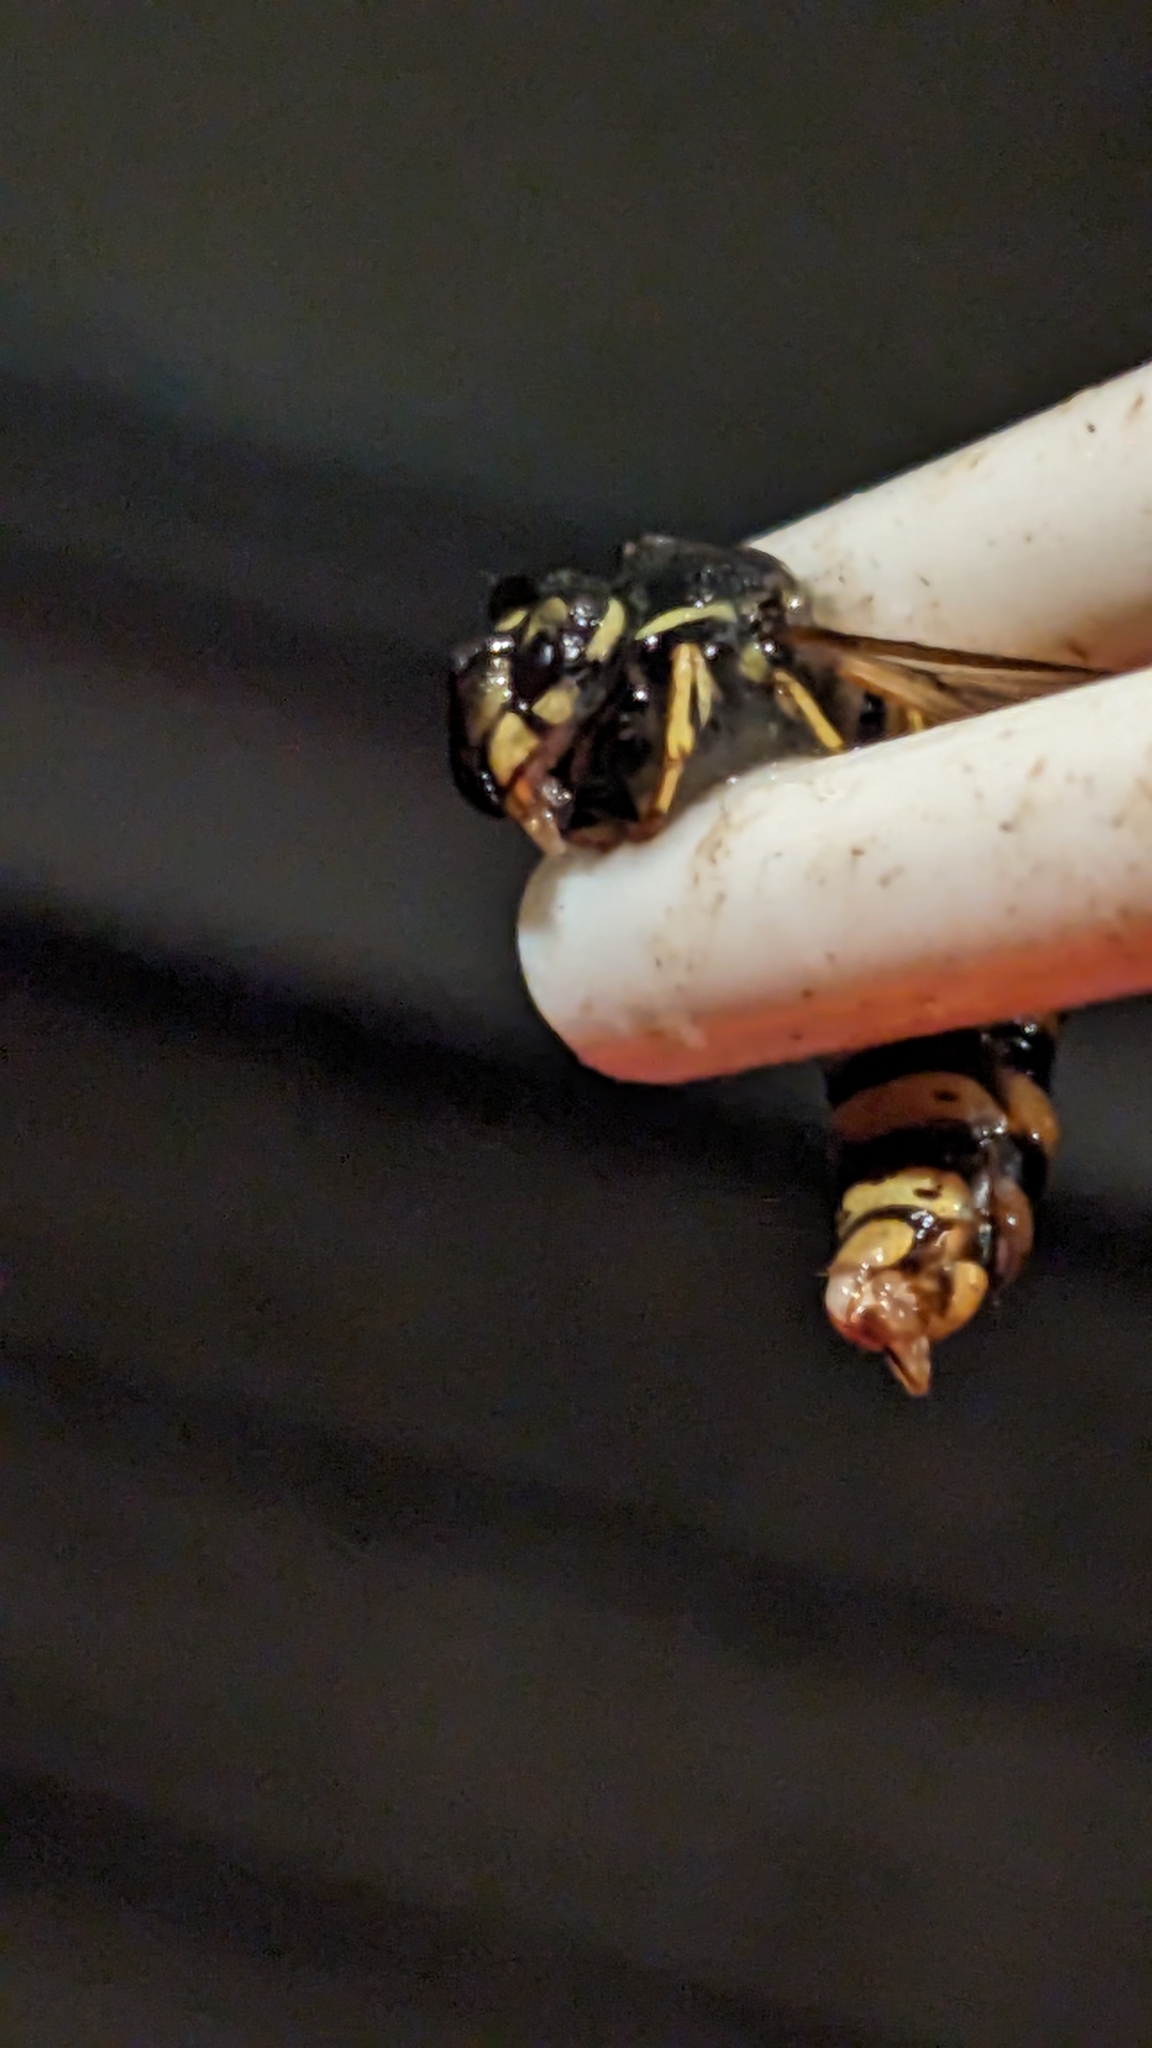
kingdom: Animalia
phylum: Arthropoda
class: Insecta
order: Hymenoptera
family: Vespidae
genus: Vespula
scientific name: Vespula vulgaris
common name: Common wasp
